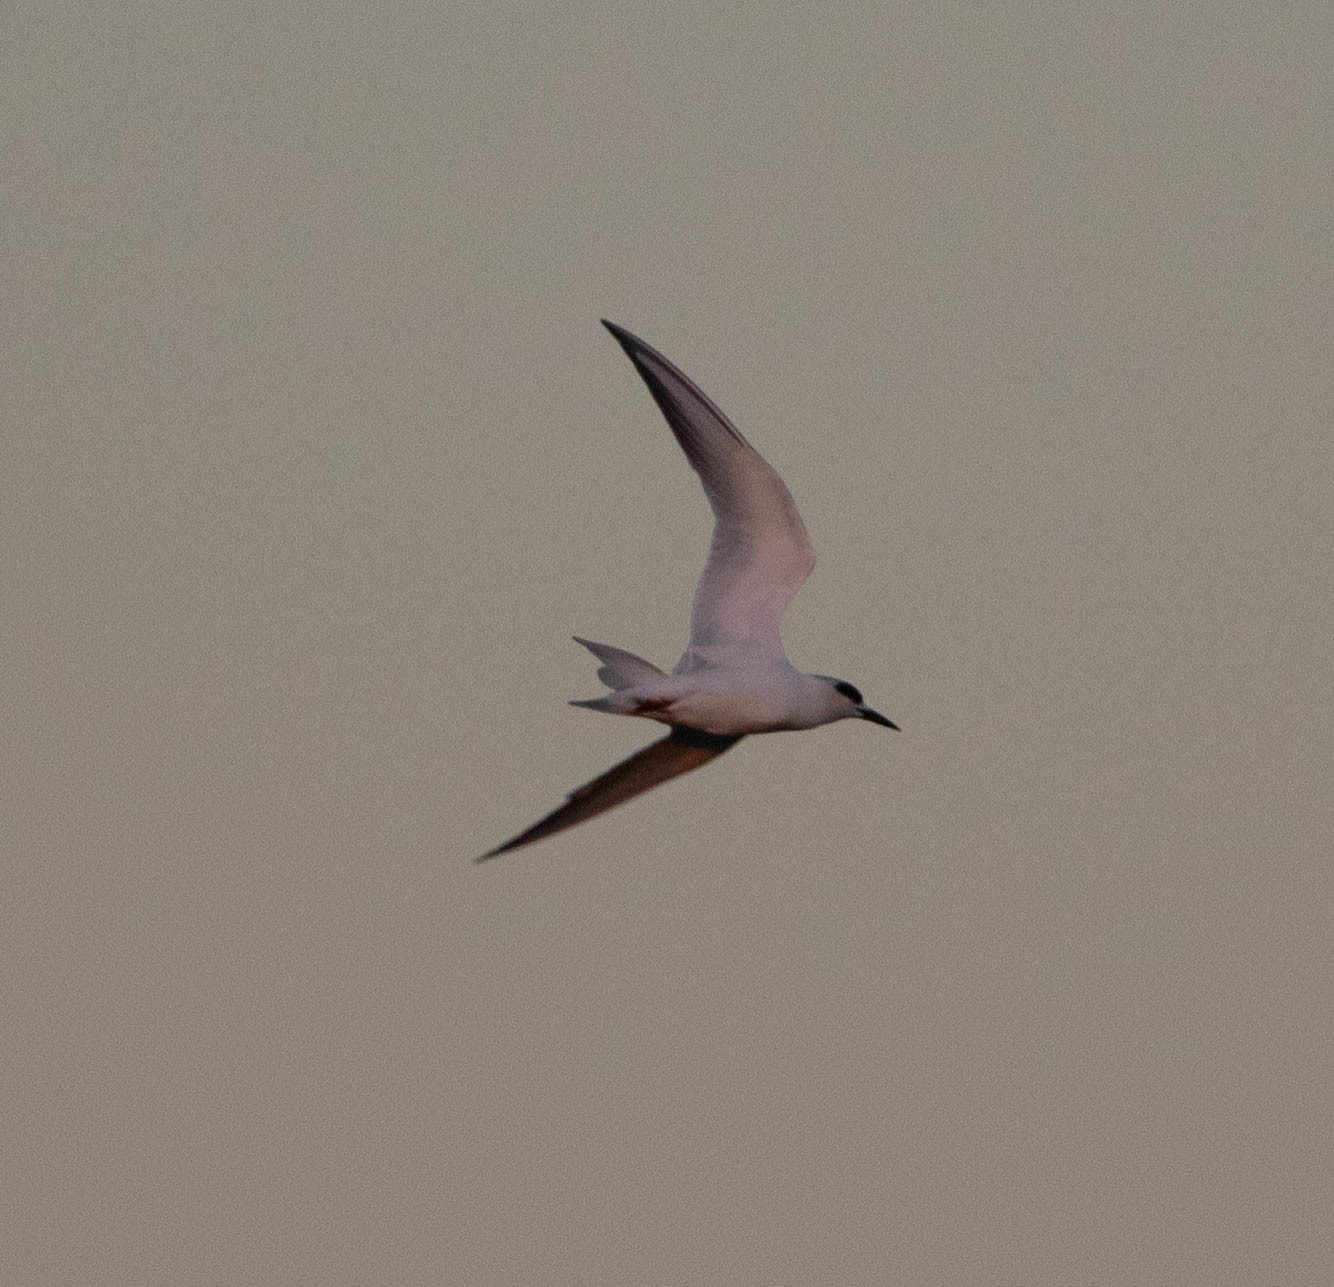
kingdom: Animalia
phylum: Chordata
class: Aves
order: Charadriiformes
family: Laridae
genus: Sterna
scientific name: Sterna forsteri
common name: Forster's tern
